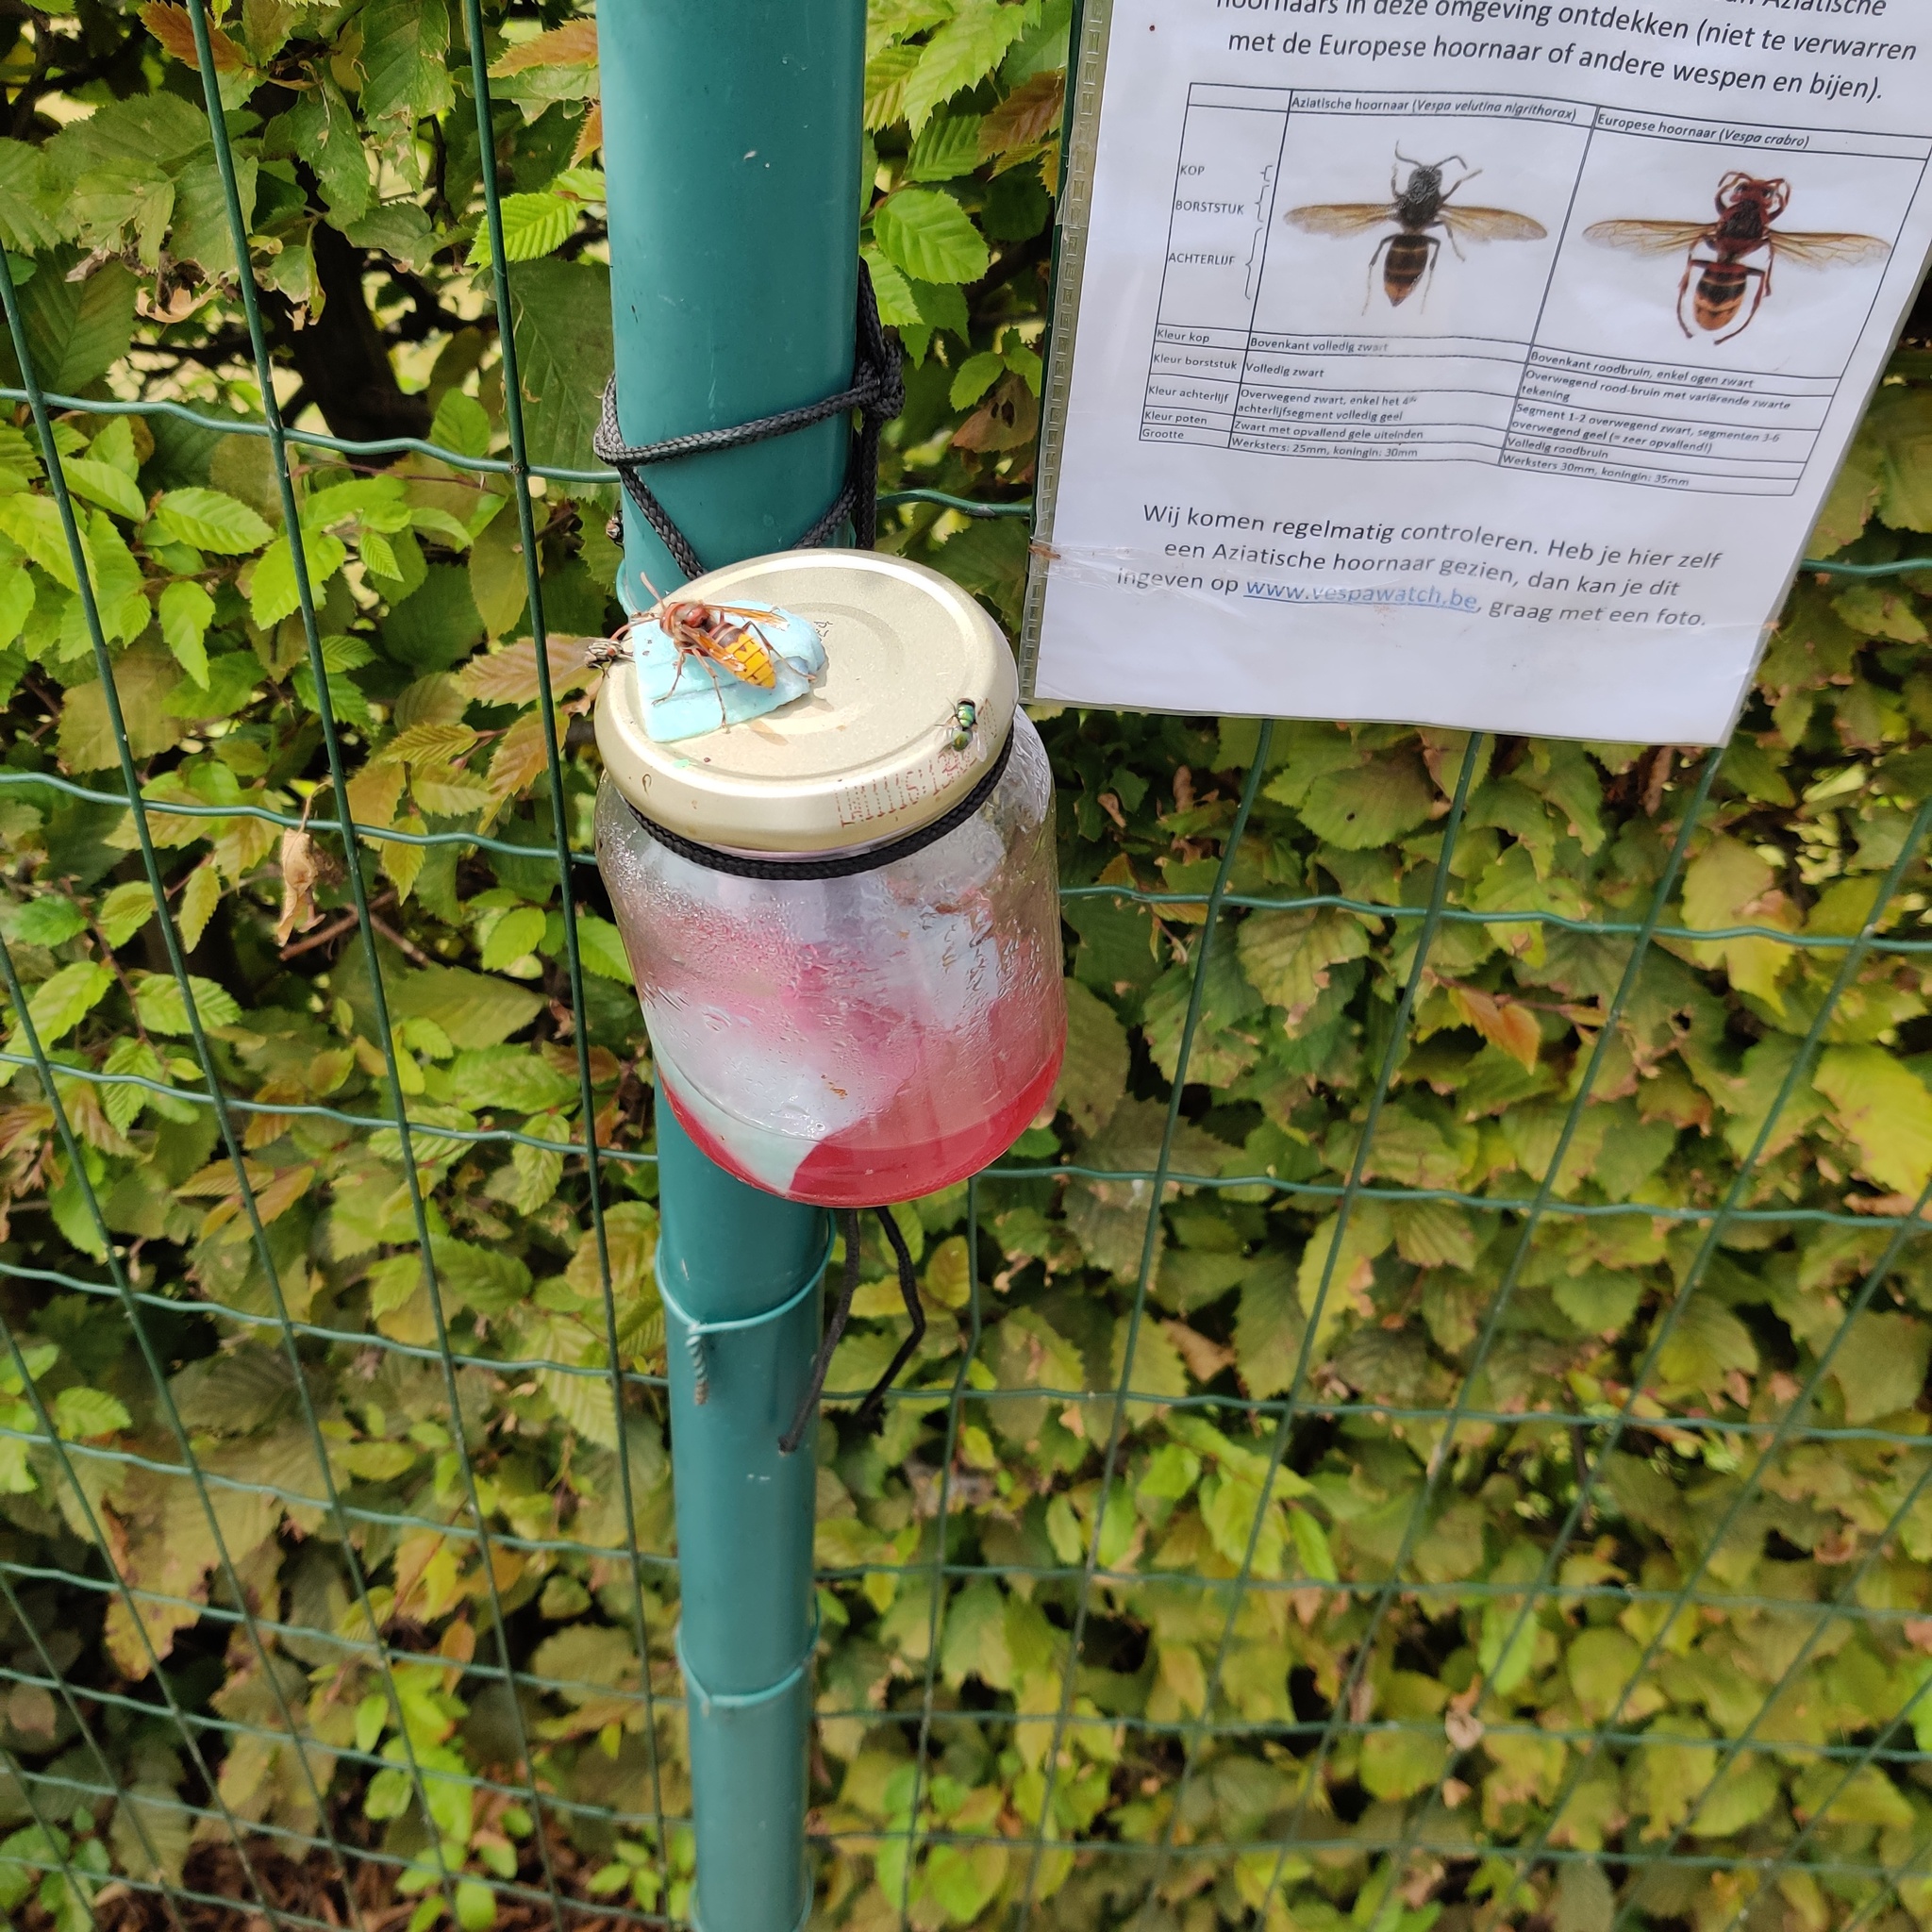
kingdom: Animalia
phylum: Arthropoda
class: Insecta
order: Hymenoptera
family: Vespidae
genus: Vespa
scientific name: Vespa crabro
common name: Hornet
